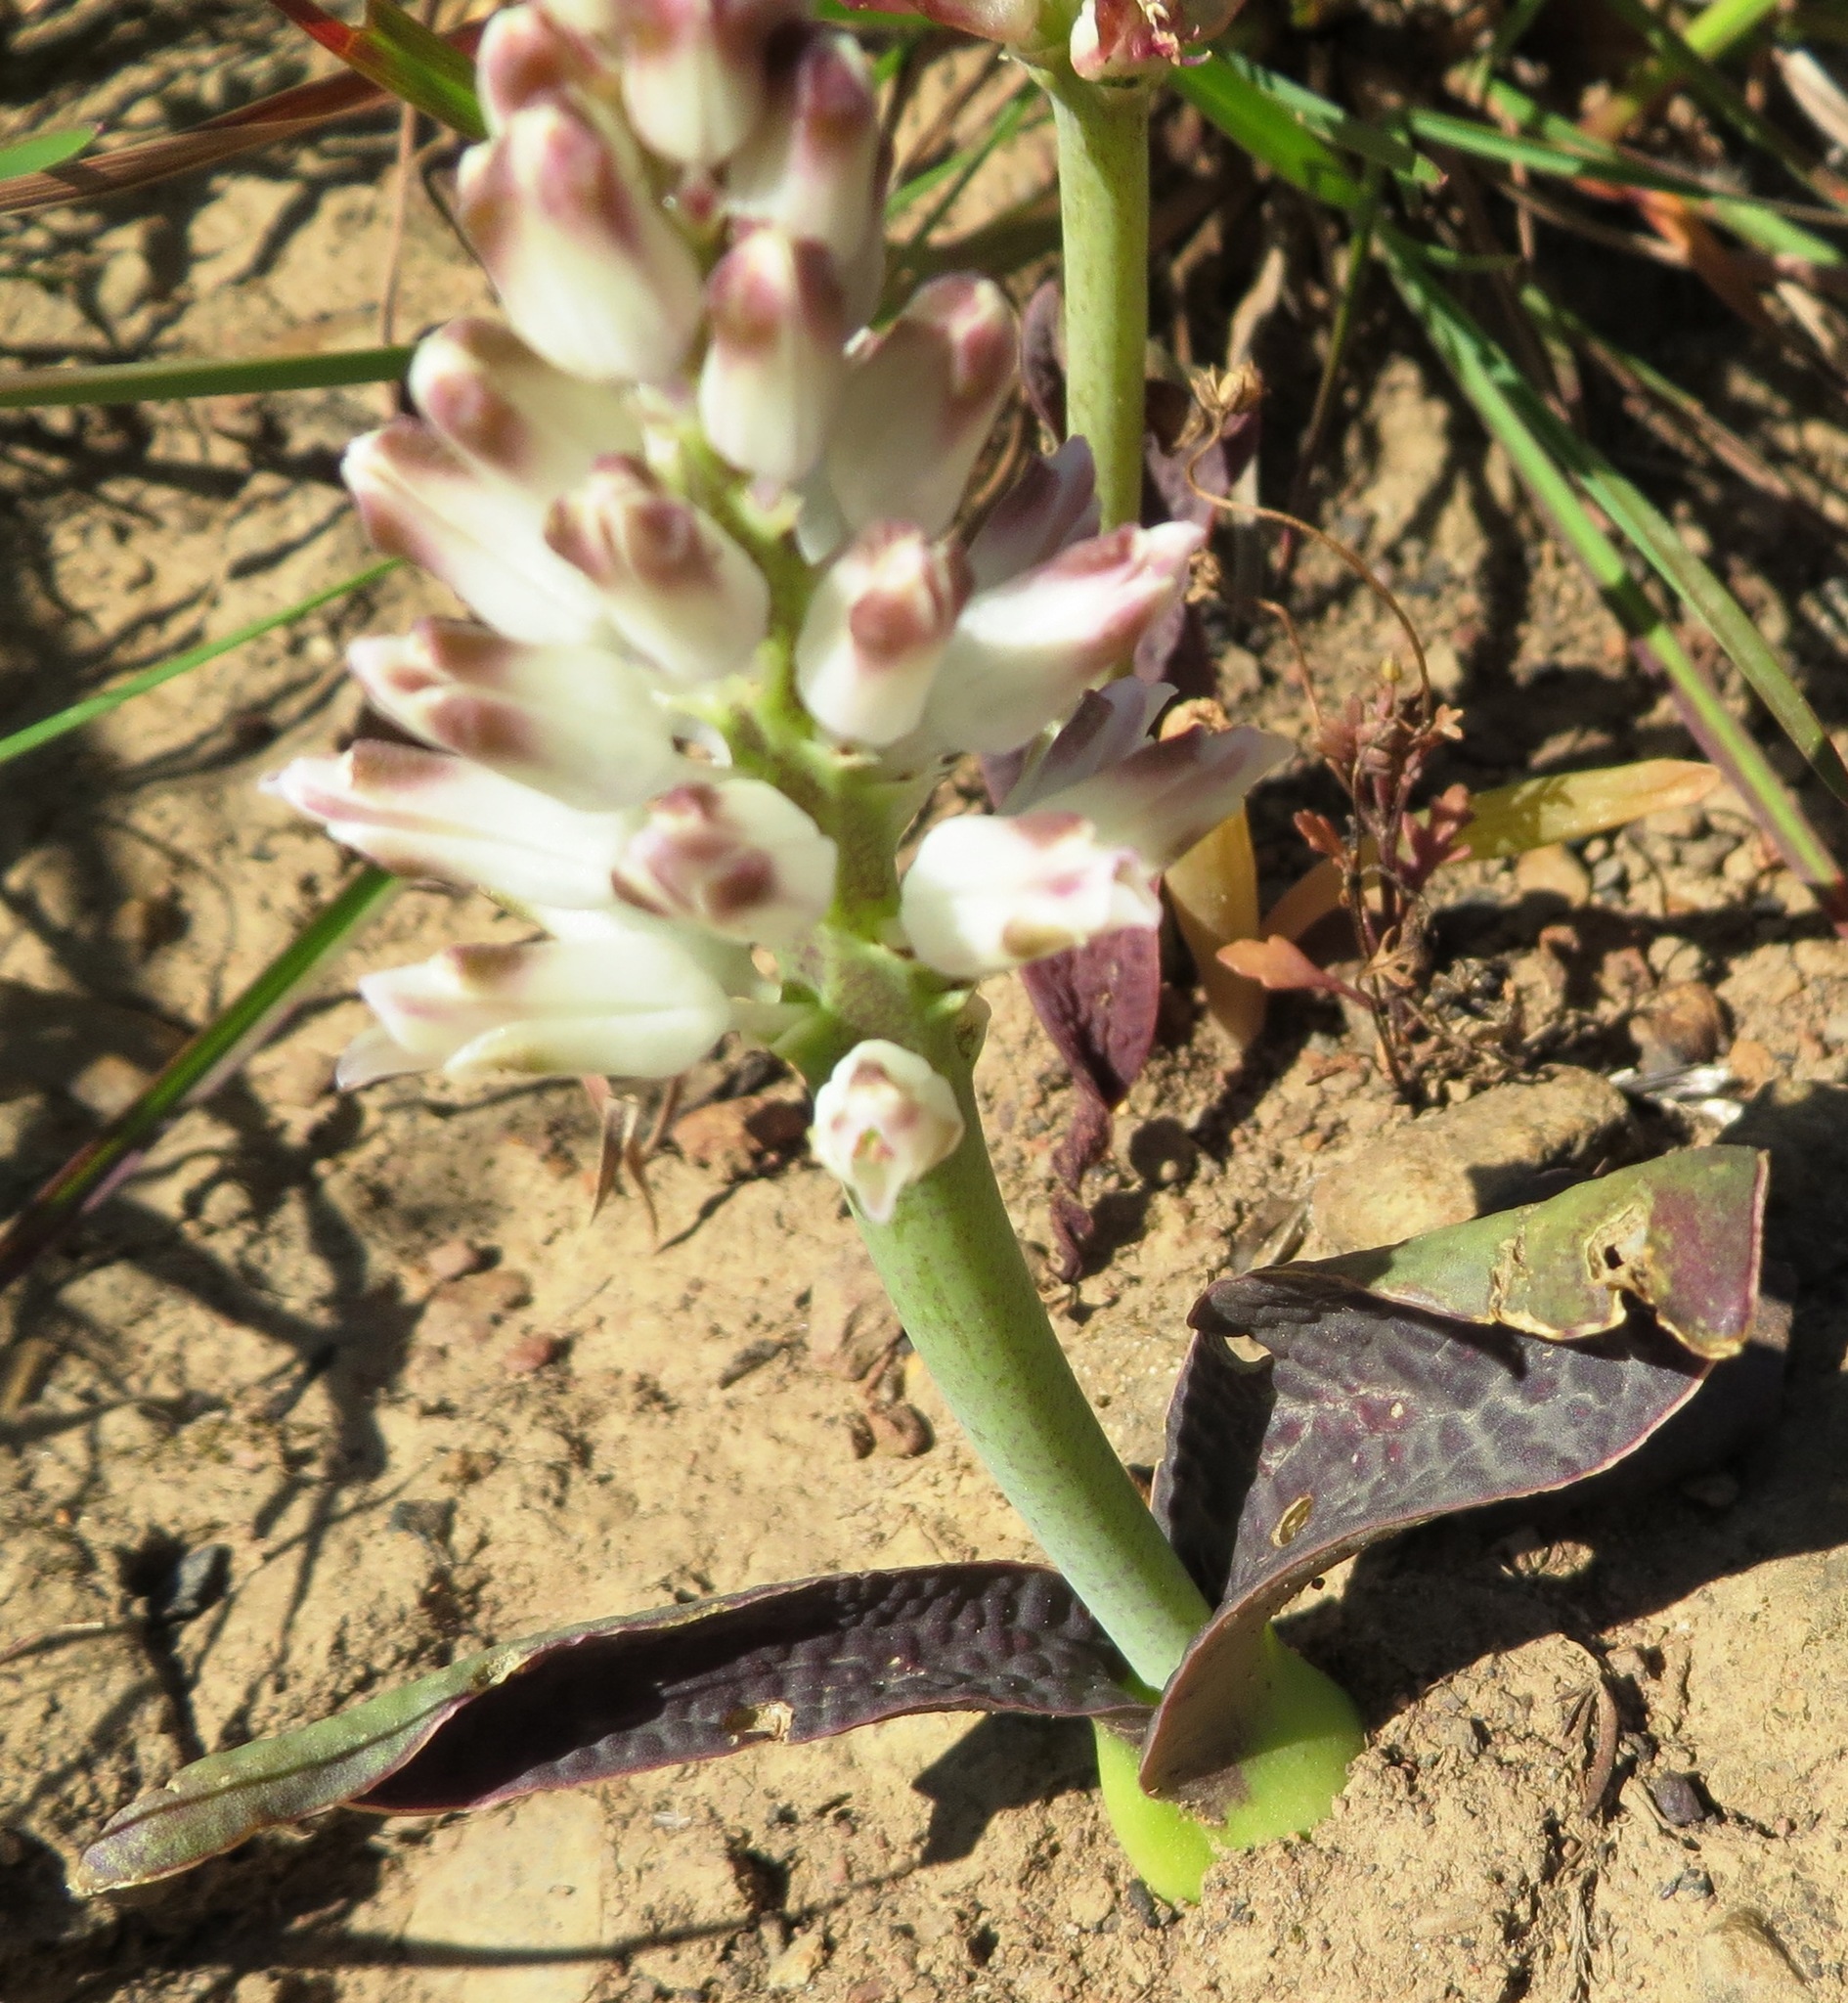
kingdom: Plantae
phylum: Tracheophyta
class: Liliopsida
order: Asparagales
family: Asparagaceae
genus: Lachenalia
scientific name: Lachenalia pallida
